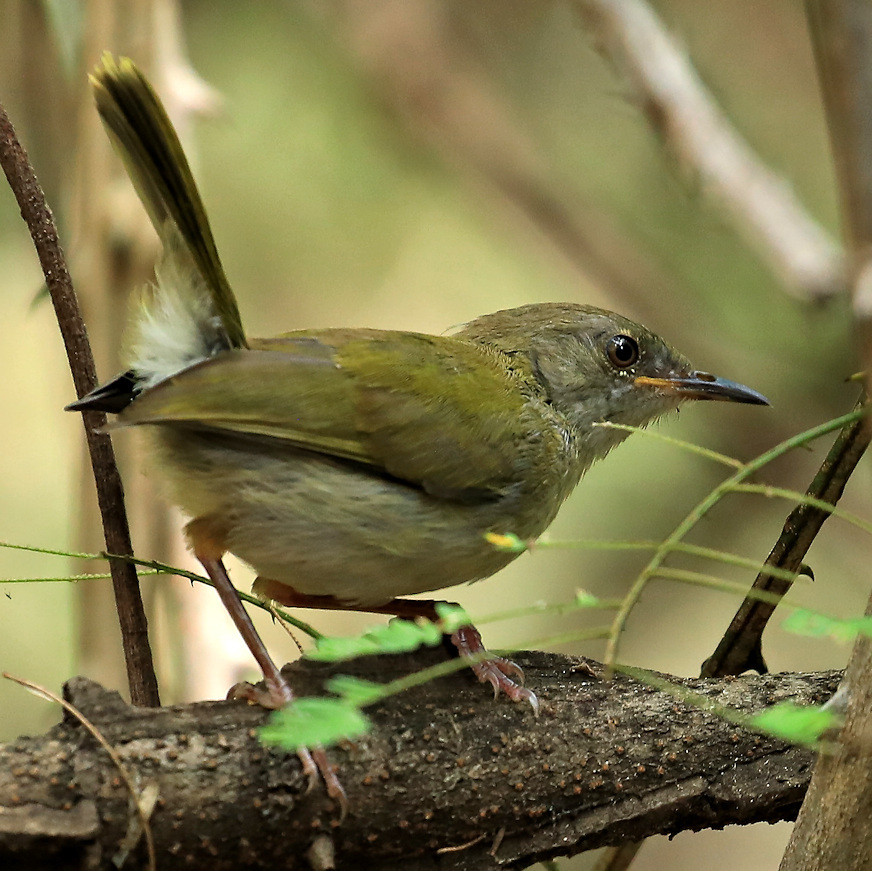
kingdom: Animalia
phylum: Chordata
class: Aves
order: Passeriformes
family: Cisticolidae
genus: Camaroptera
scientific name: Camaroptera brachyura
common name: Green-backed camaroptera
